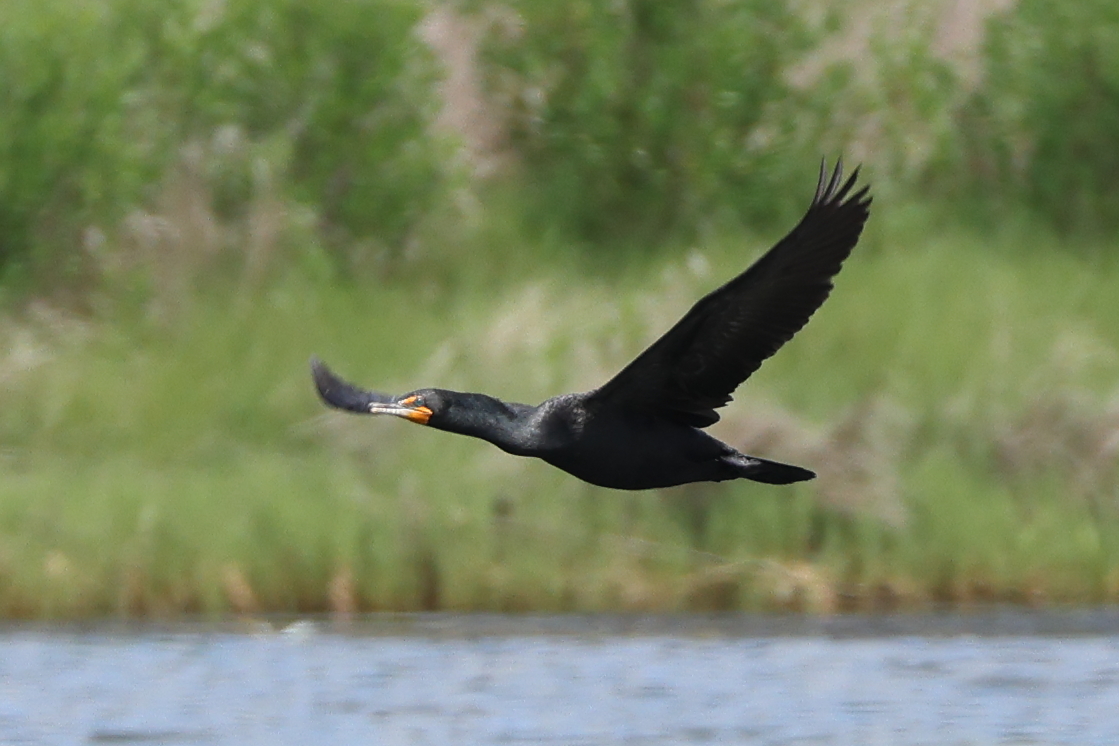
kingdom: Animalia
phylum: Chordata
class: Aves
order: Suliformes
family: Phalacrocoracidae
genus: Phalacrocorax
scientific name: Phalacrocorax auritus
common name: Double-crested cormorant
